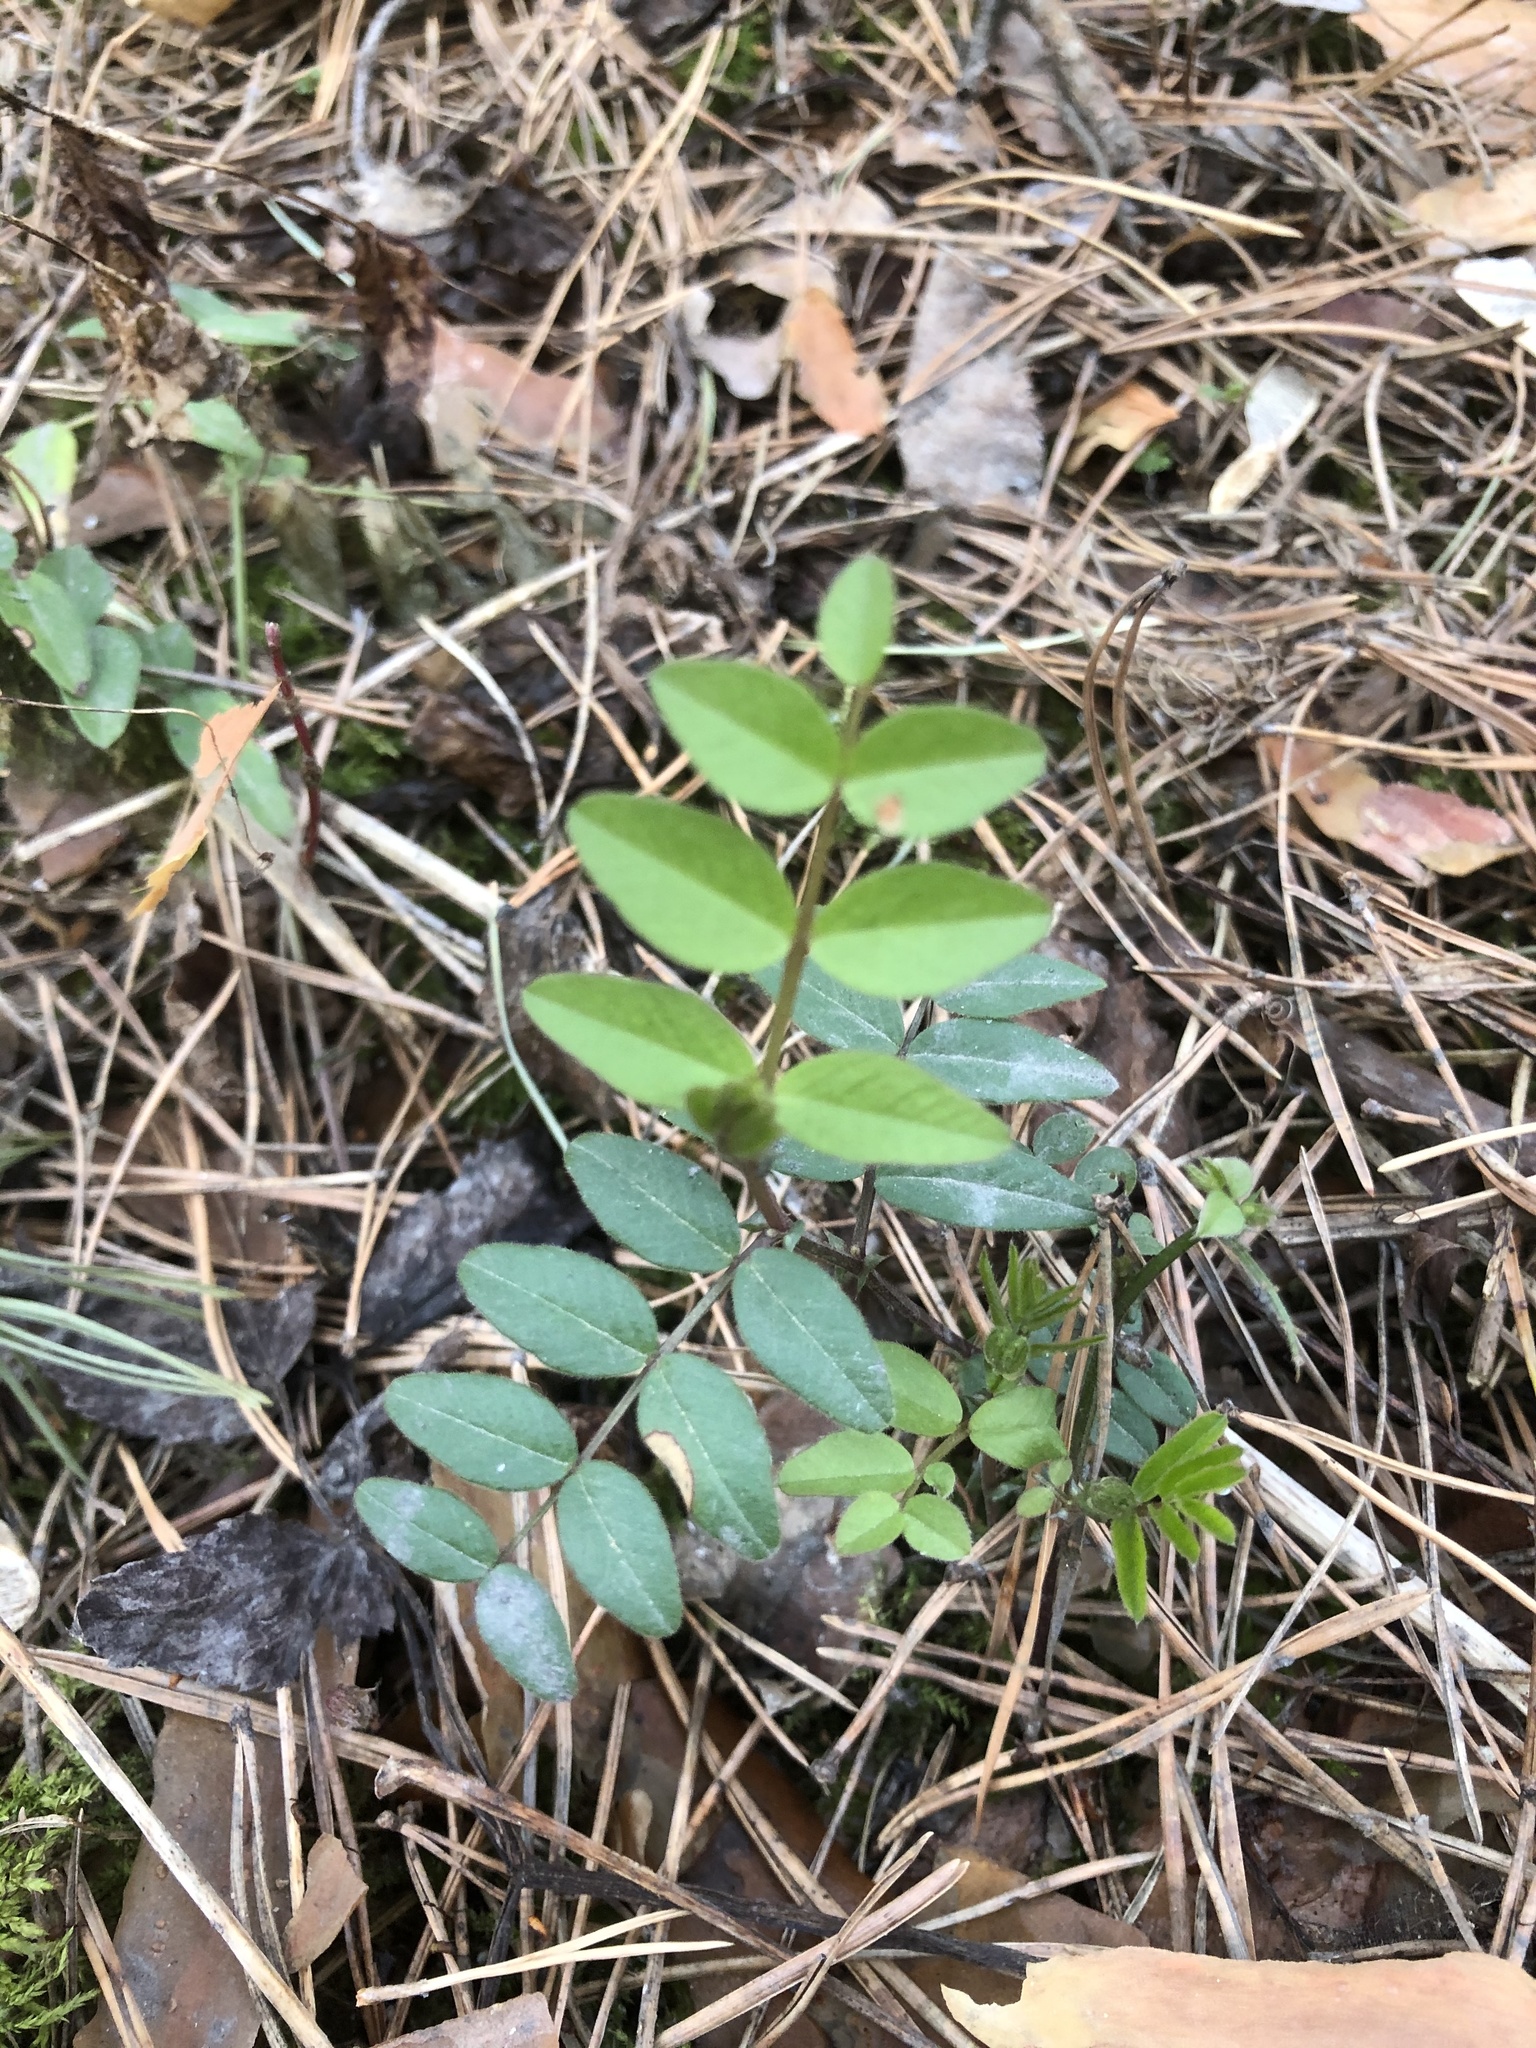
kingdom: Plantae
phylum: Tracheophyta
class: Magnoliopsida
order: Fabales
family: Fabaceae
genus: Vicia
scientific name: Vicia sepium
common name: Bush vetch
